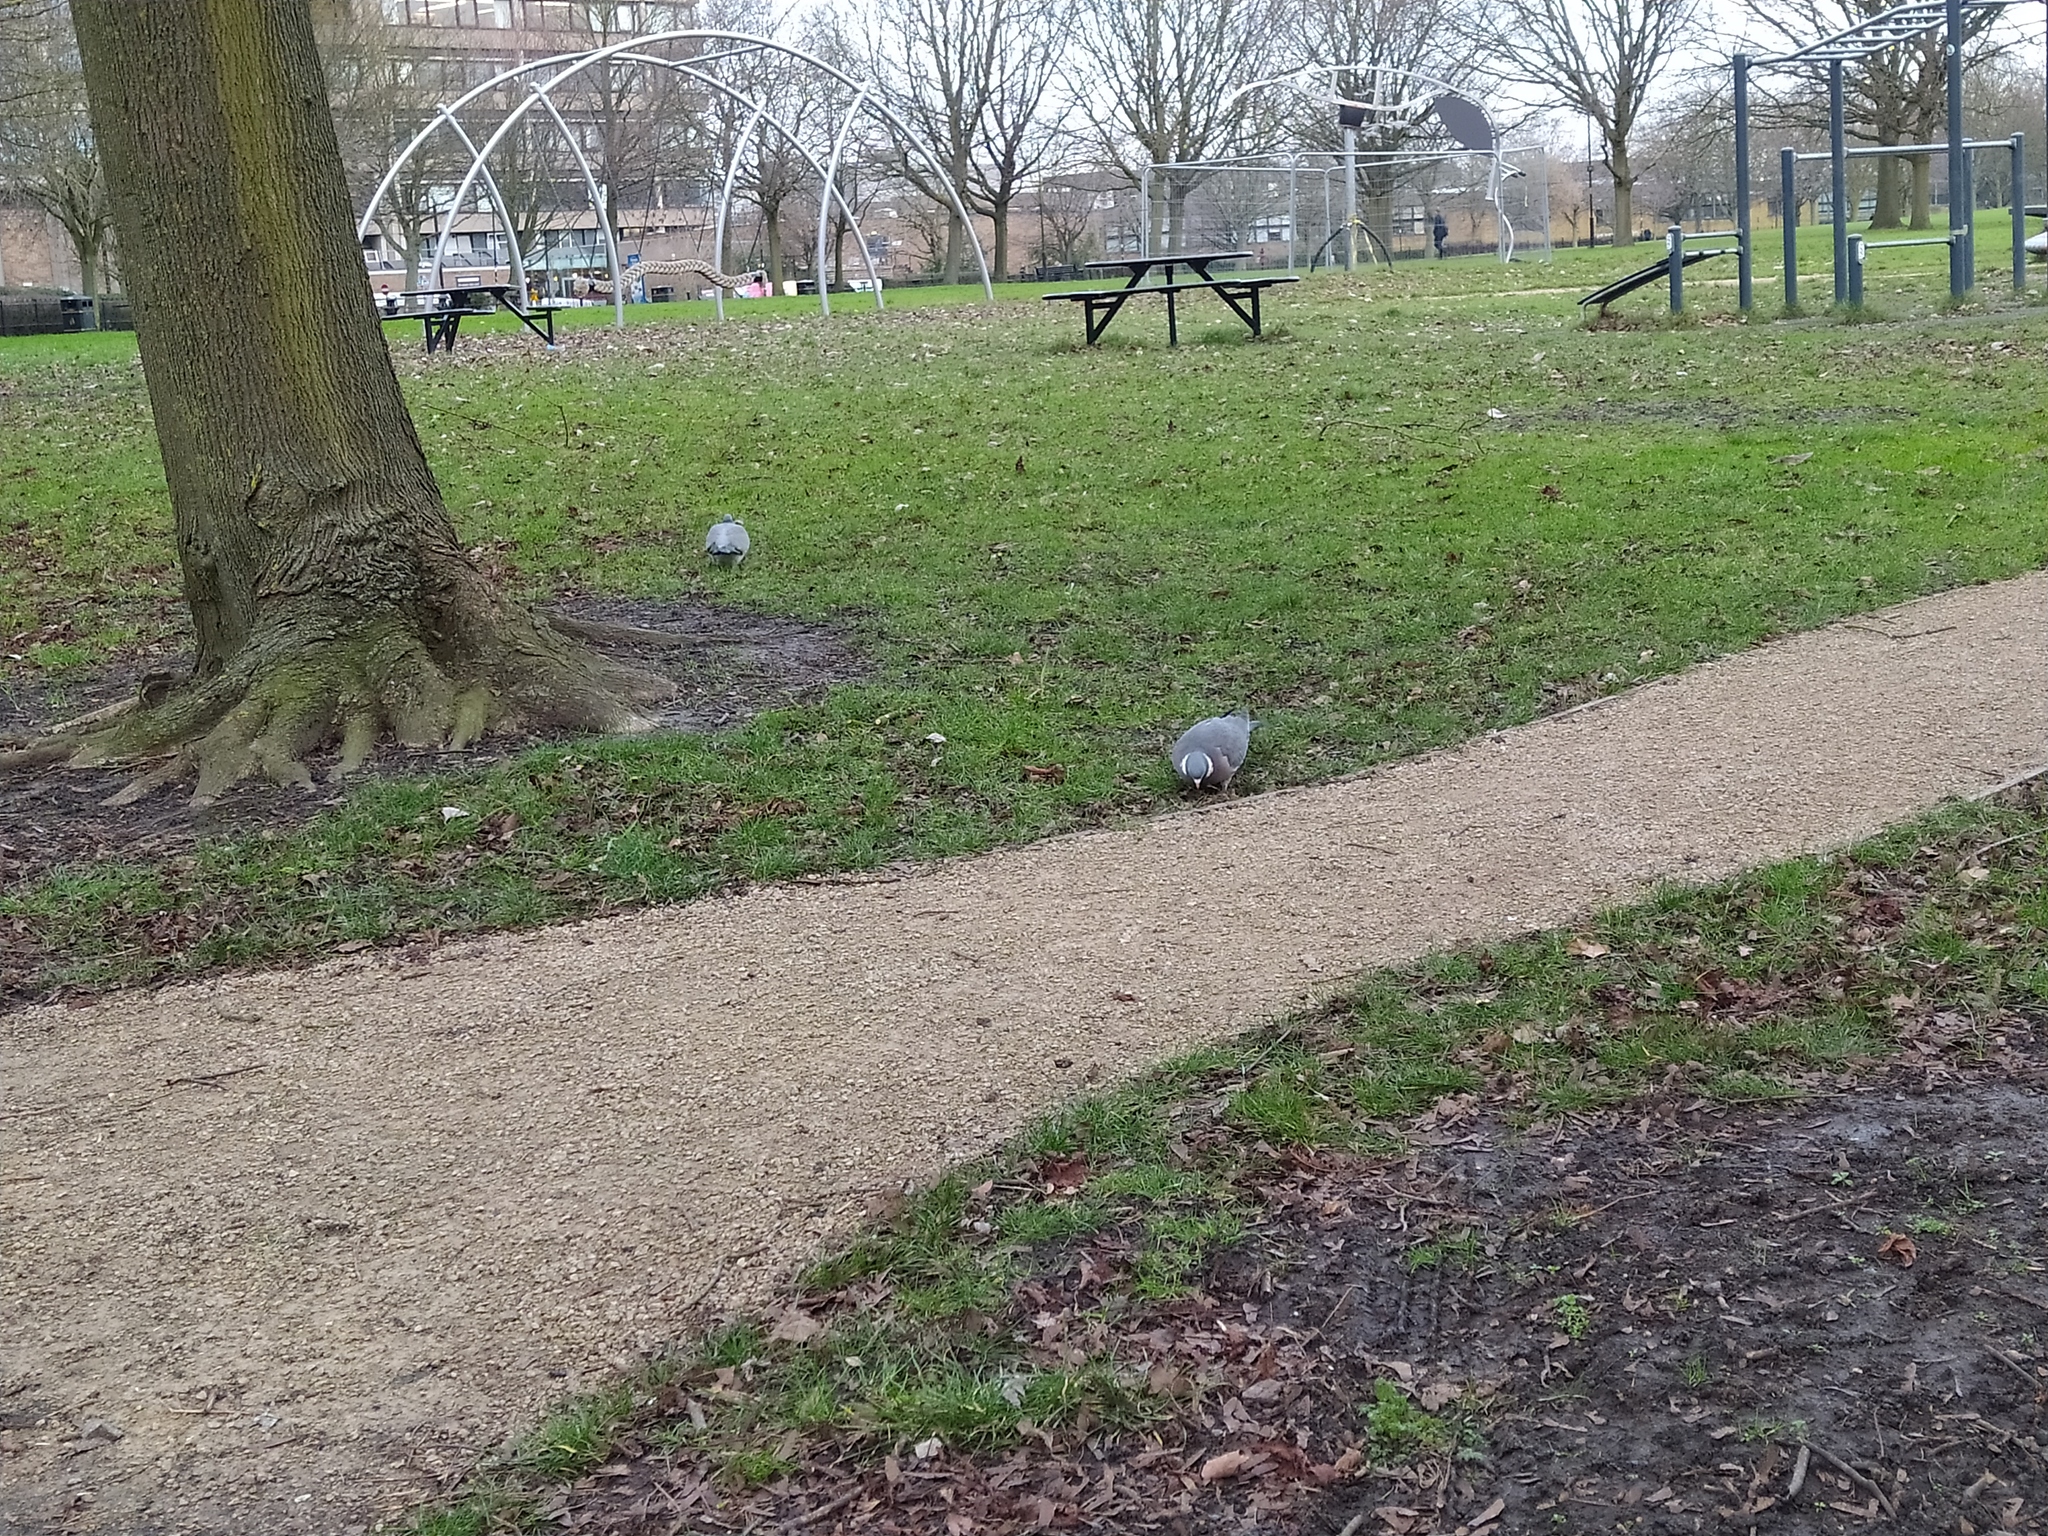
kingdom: Animalia
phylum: Chordata
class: Aves
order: Columbiformes
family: Columbidae
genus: Columba
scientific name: Columba palumbus
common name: Common wood pigeon
